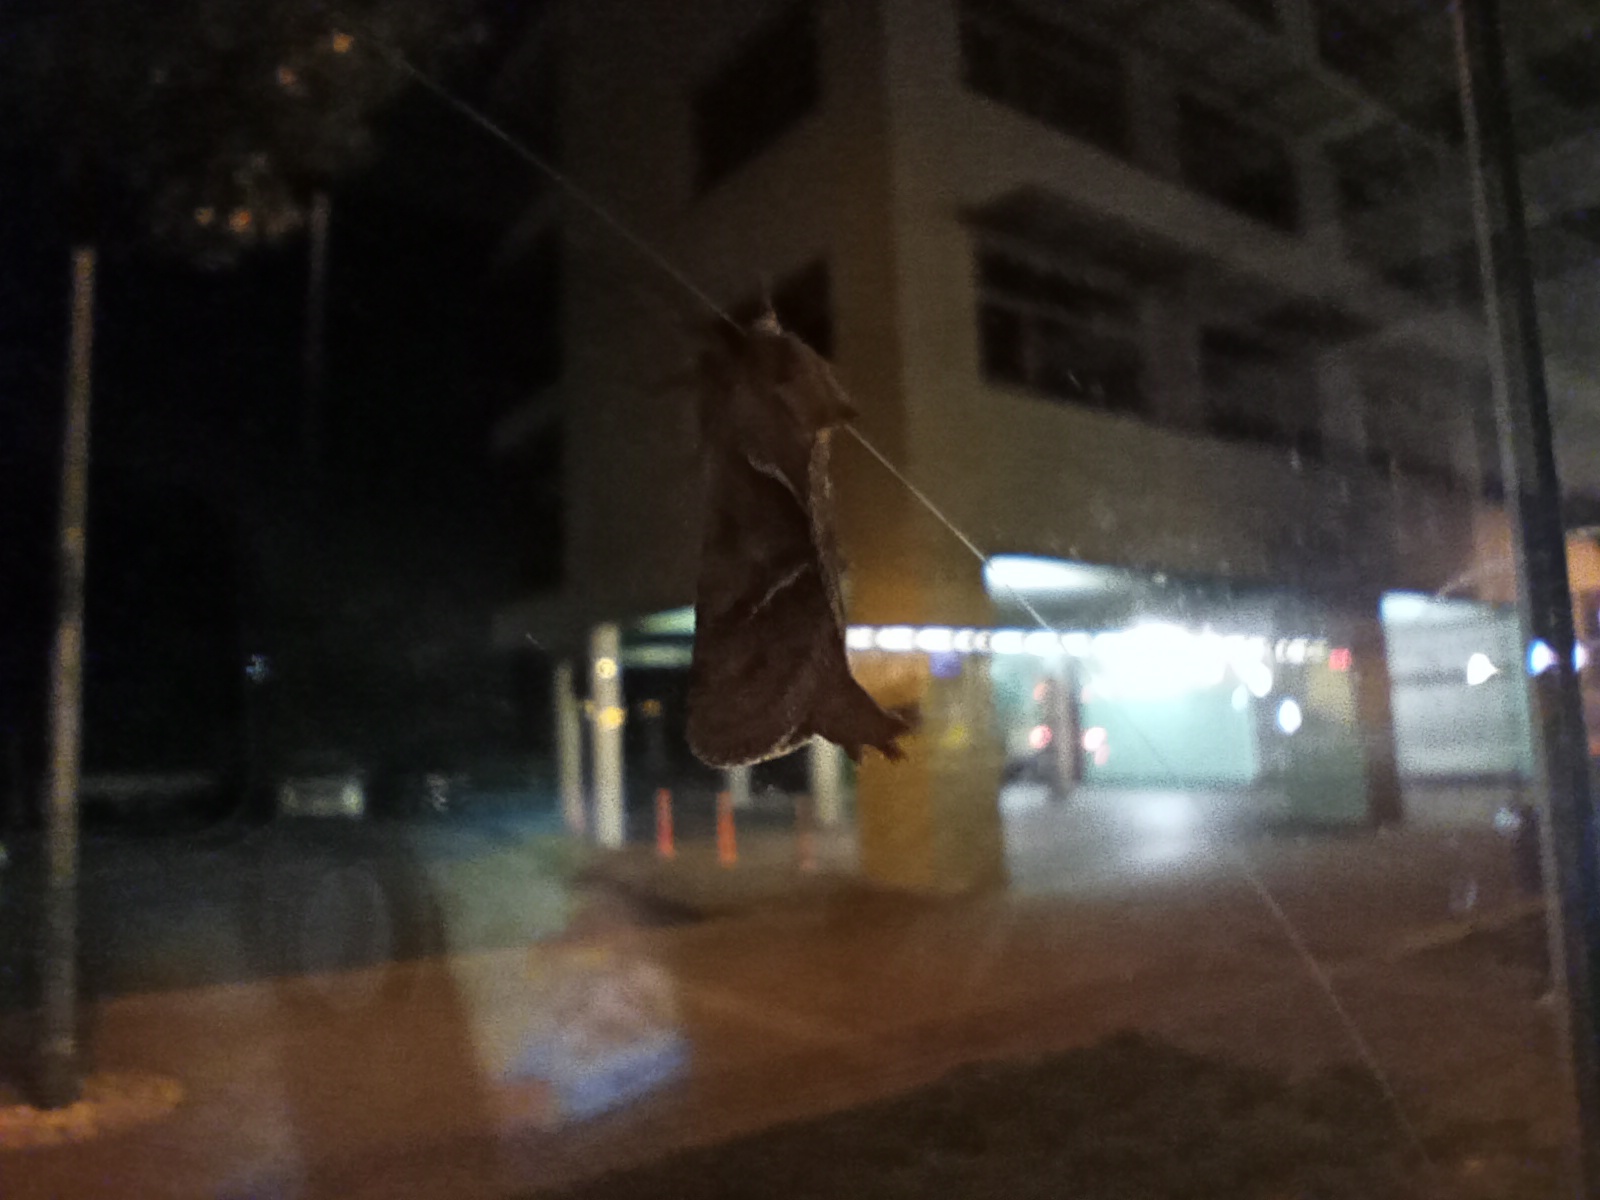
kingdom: Animalia
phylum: Arthropoda
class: Insecta
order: Lepidoptera
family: Hepialidae
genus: Triodia
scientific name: Triodia sylvina
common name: Orange swift
